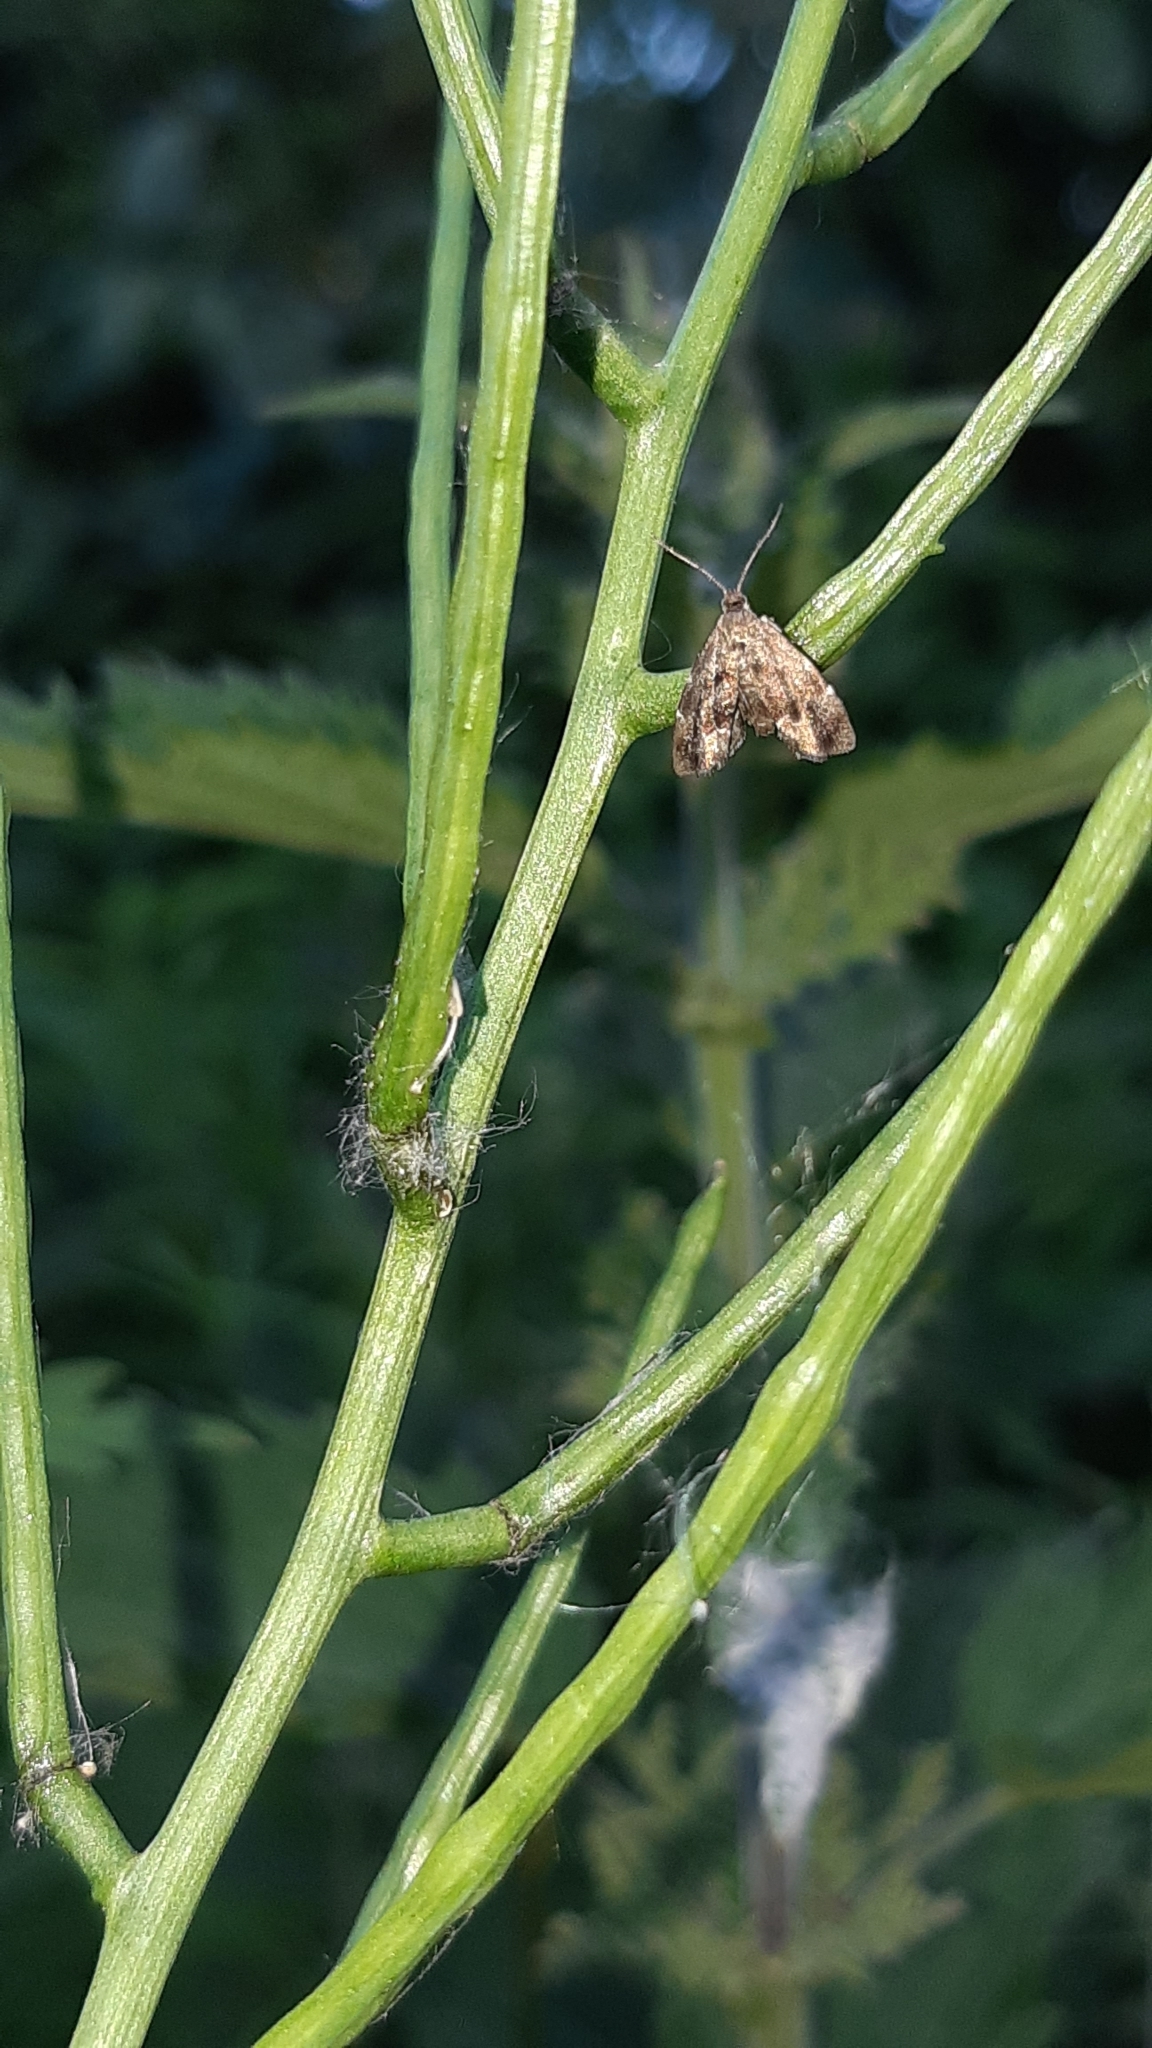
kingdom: Animalia
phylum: Arthropoda
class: Insecta
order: Lepidoptera
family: Choreutidae
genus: Anthophila
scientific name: Anthophila fabriciana
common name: Nettle-tap
